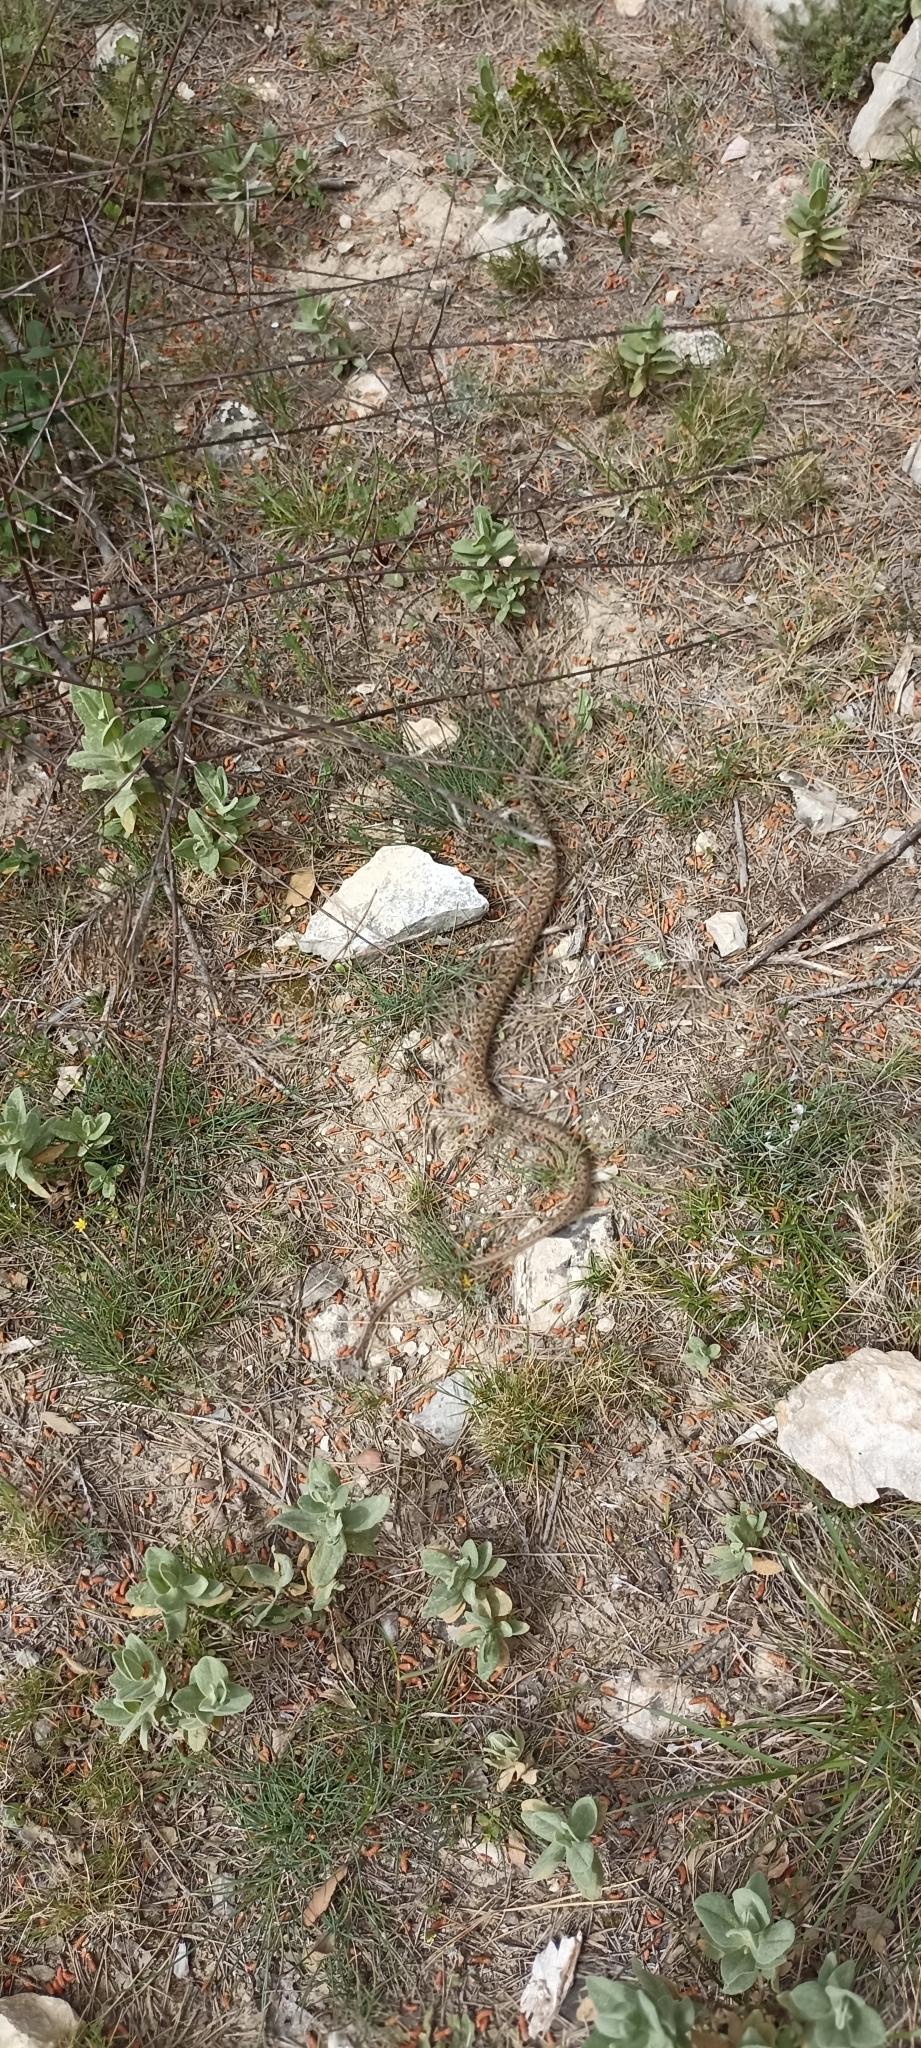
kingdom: Animalia
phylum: Chordata
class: Squamata
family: Psammophiidae
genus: Malpolon
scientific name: Malpolon monspessulanus
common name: Montpellier snake
